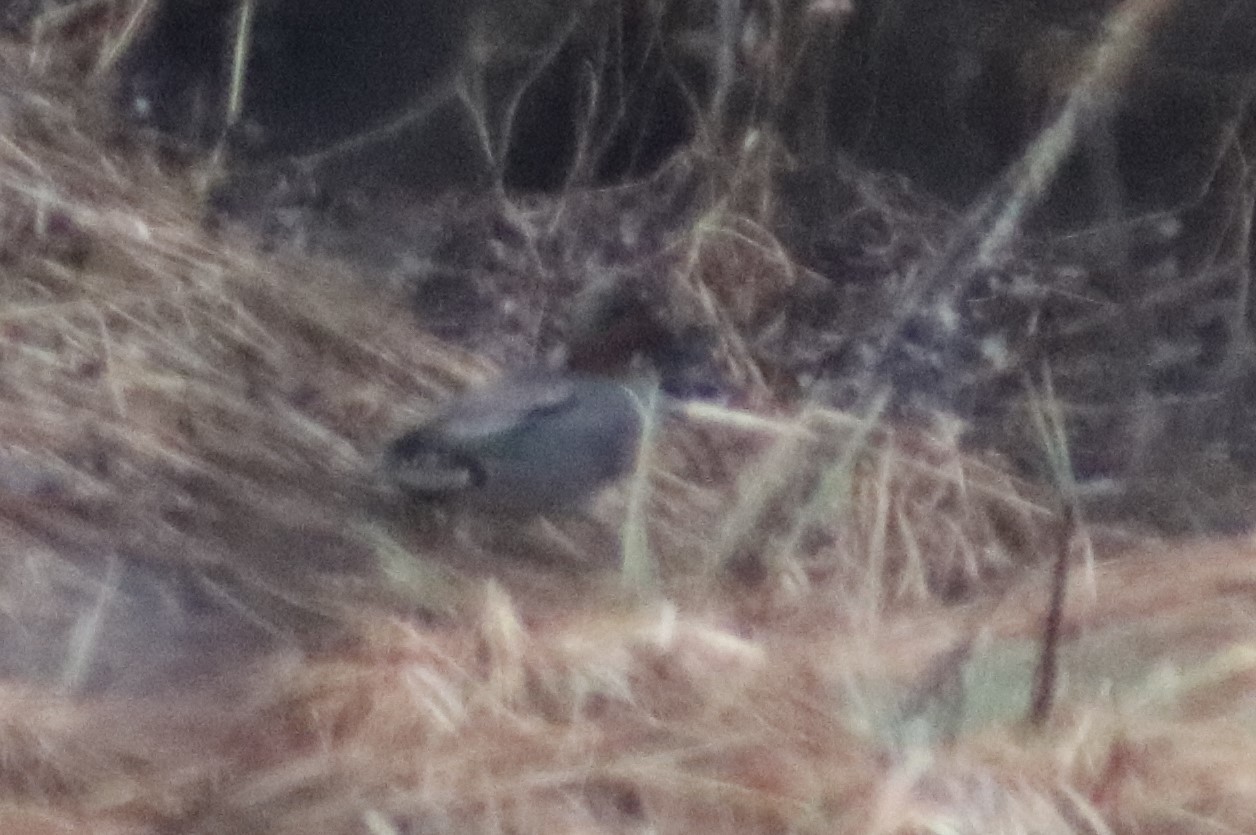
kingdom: Animalia
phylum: Chordata
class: Aves
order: Anseriformes
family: Anatidae
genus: Anas
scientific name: Anas crecca
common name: Eurasian teal
